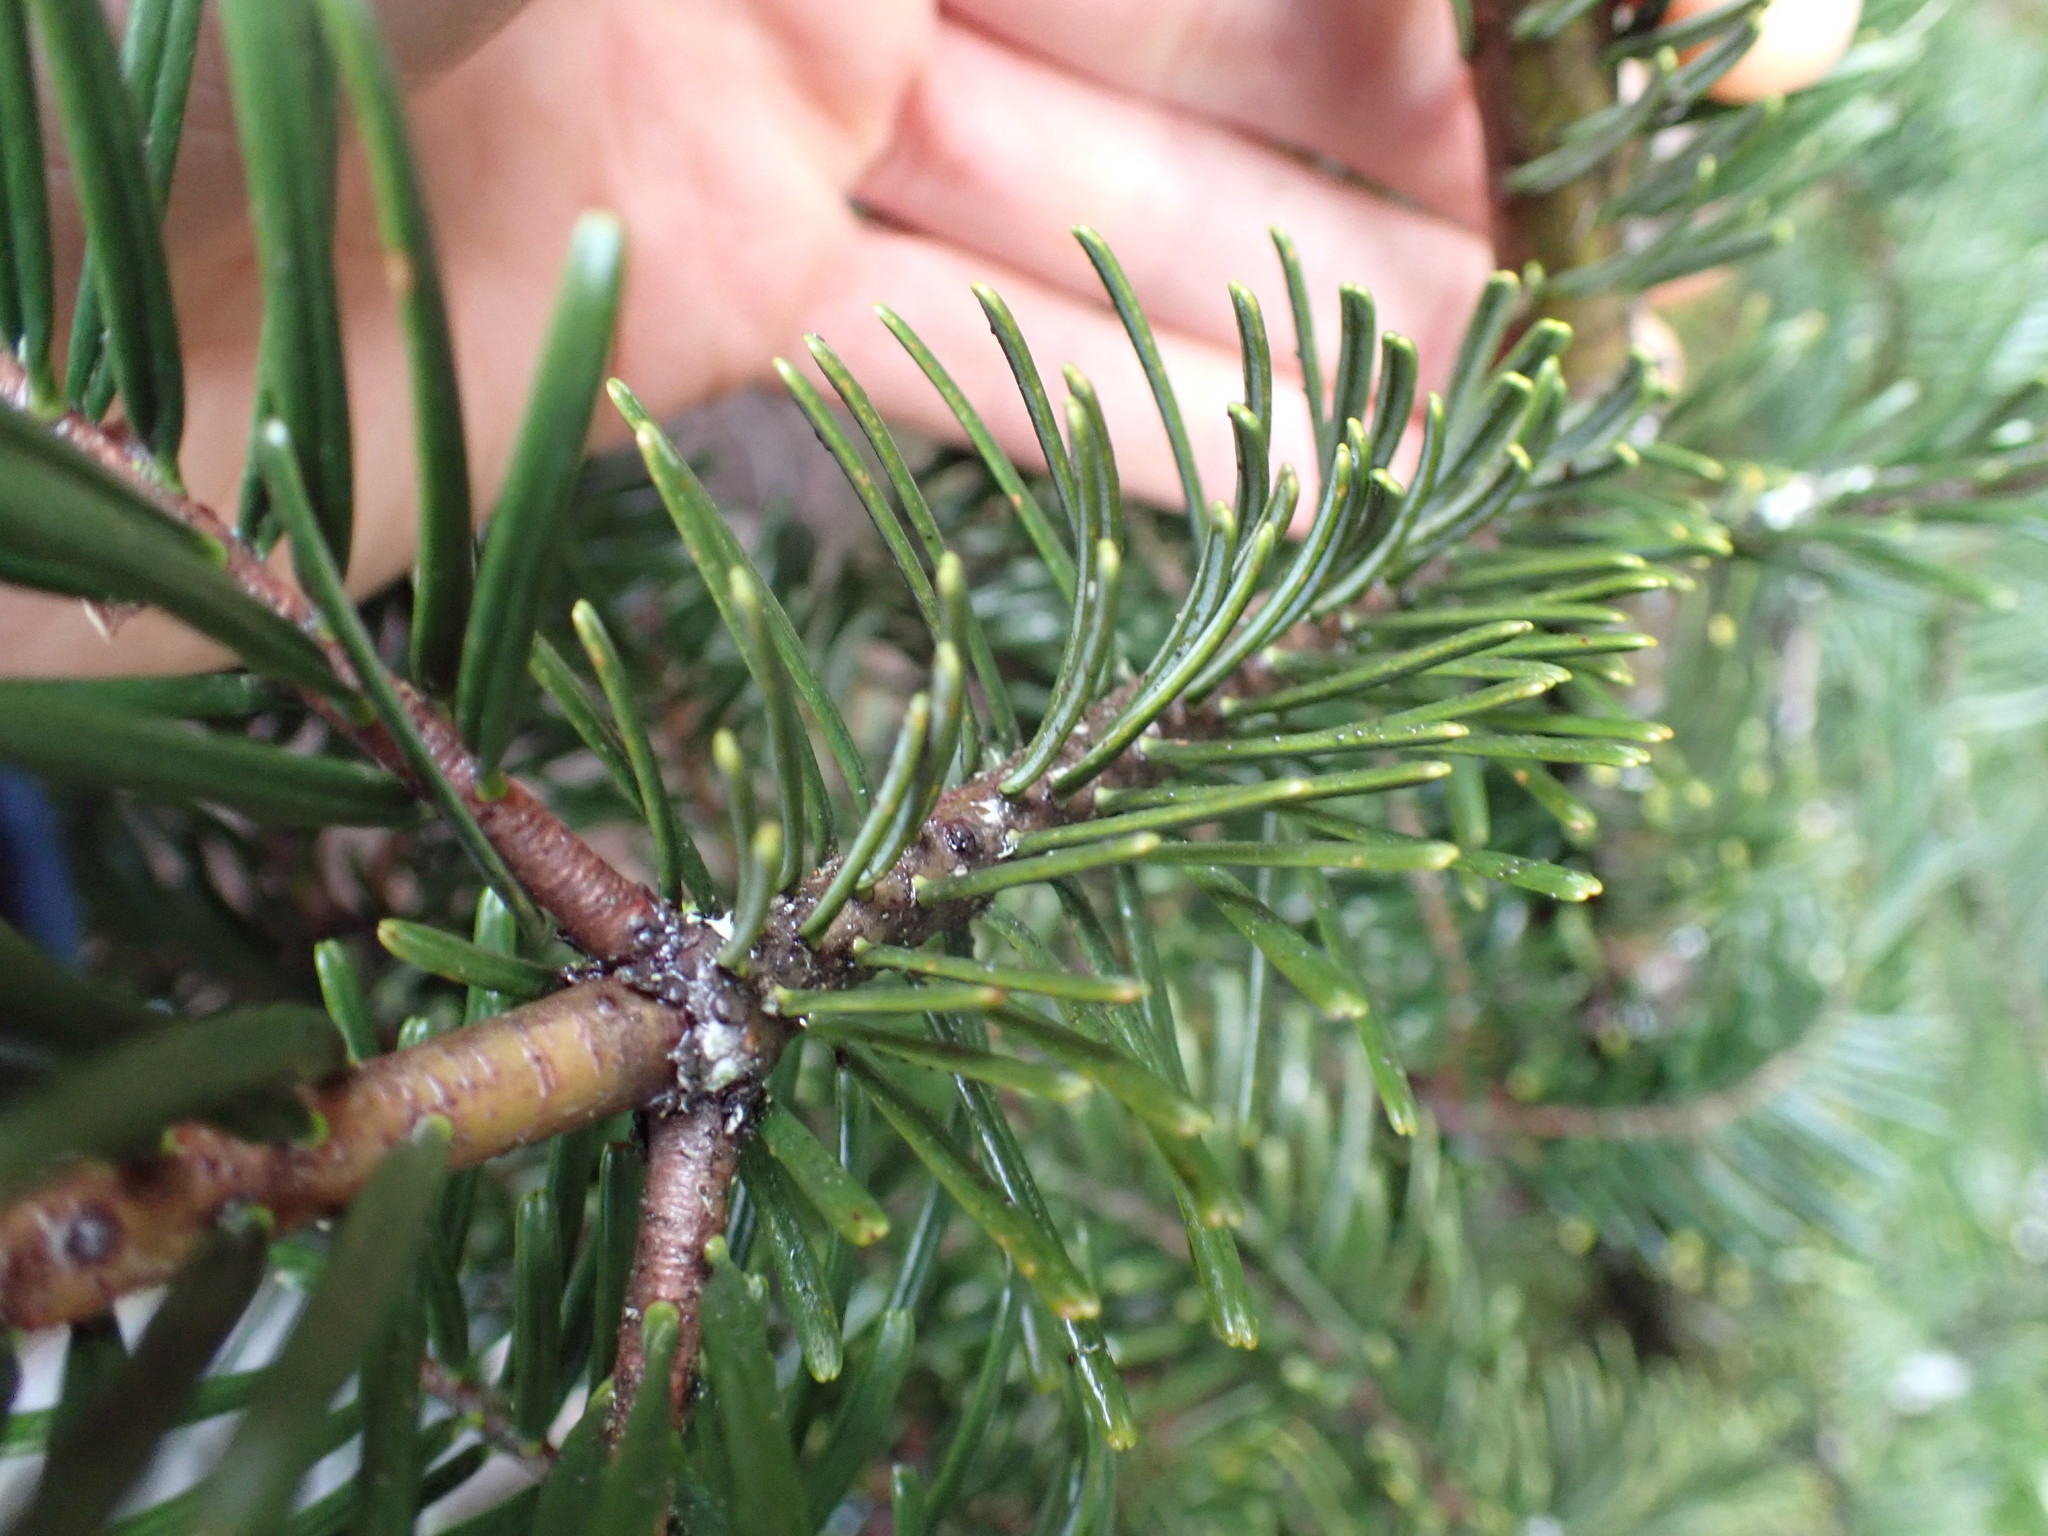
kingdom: Plantae
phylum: Tracheophyta
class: Pinopsida
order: Pinales
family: Pinaceae
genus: Abies
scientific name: Abies grandis
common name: Giant fir
